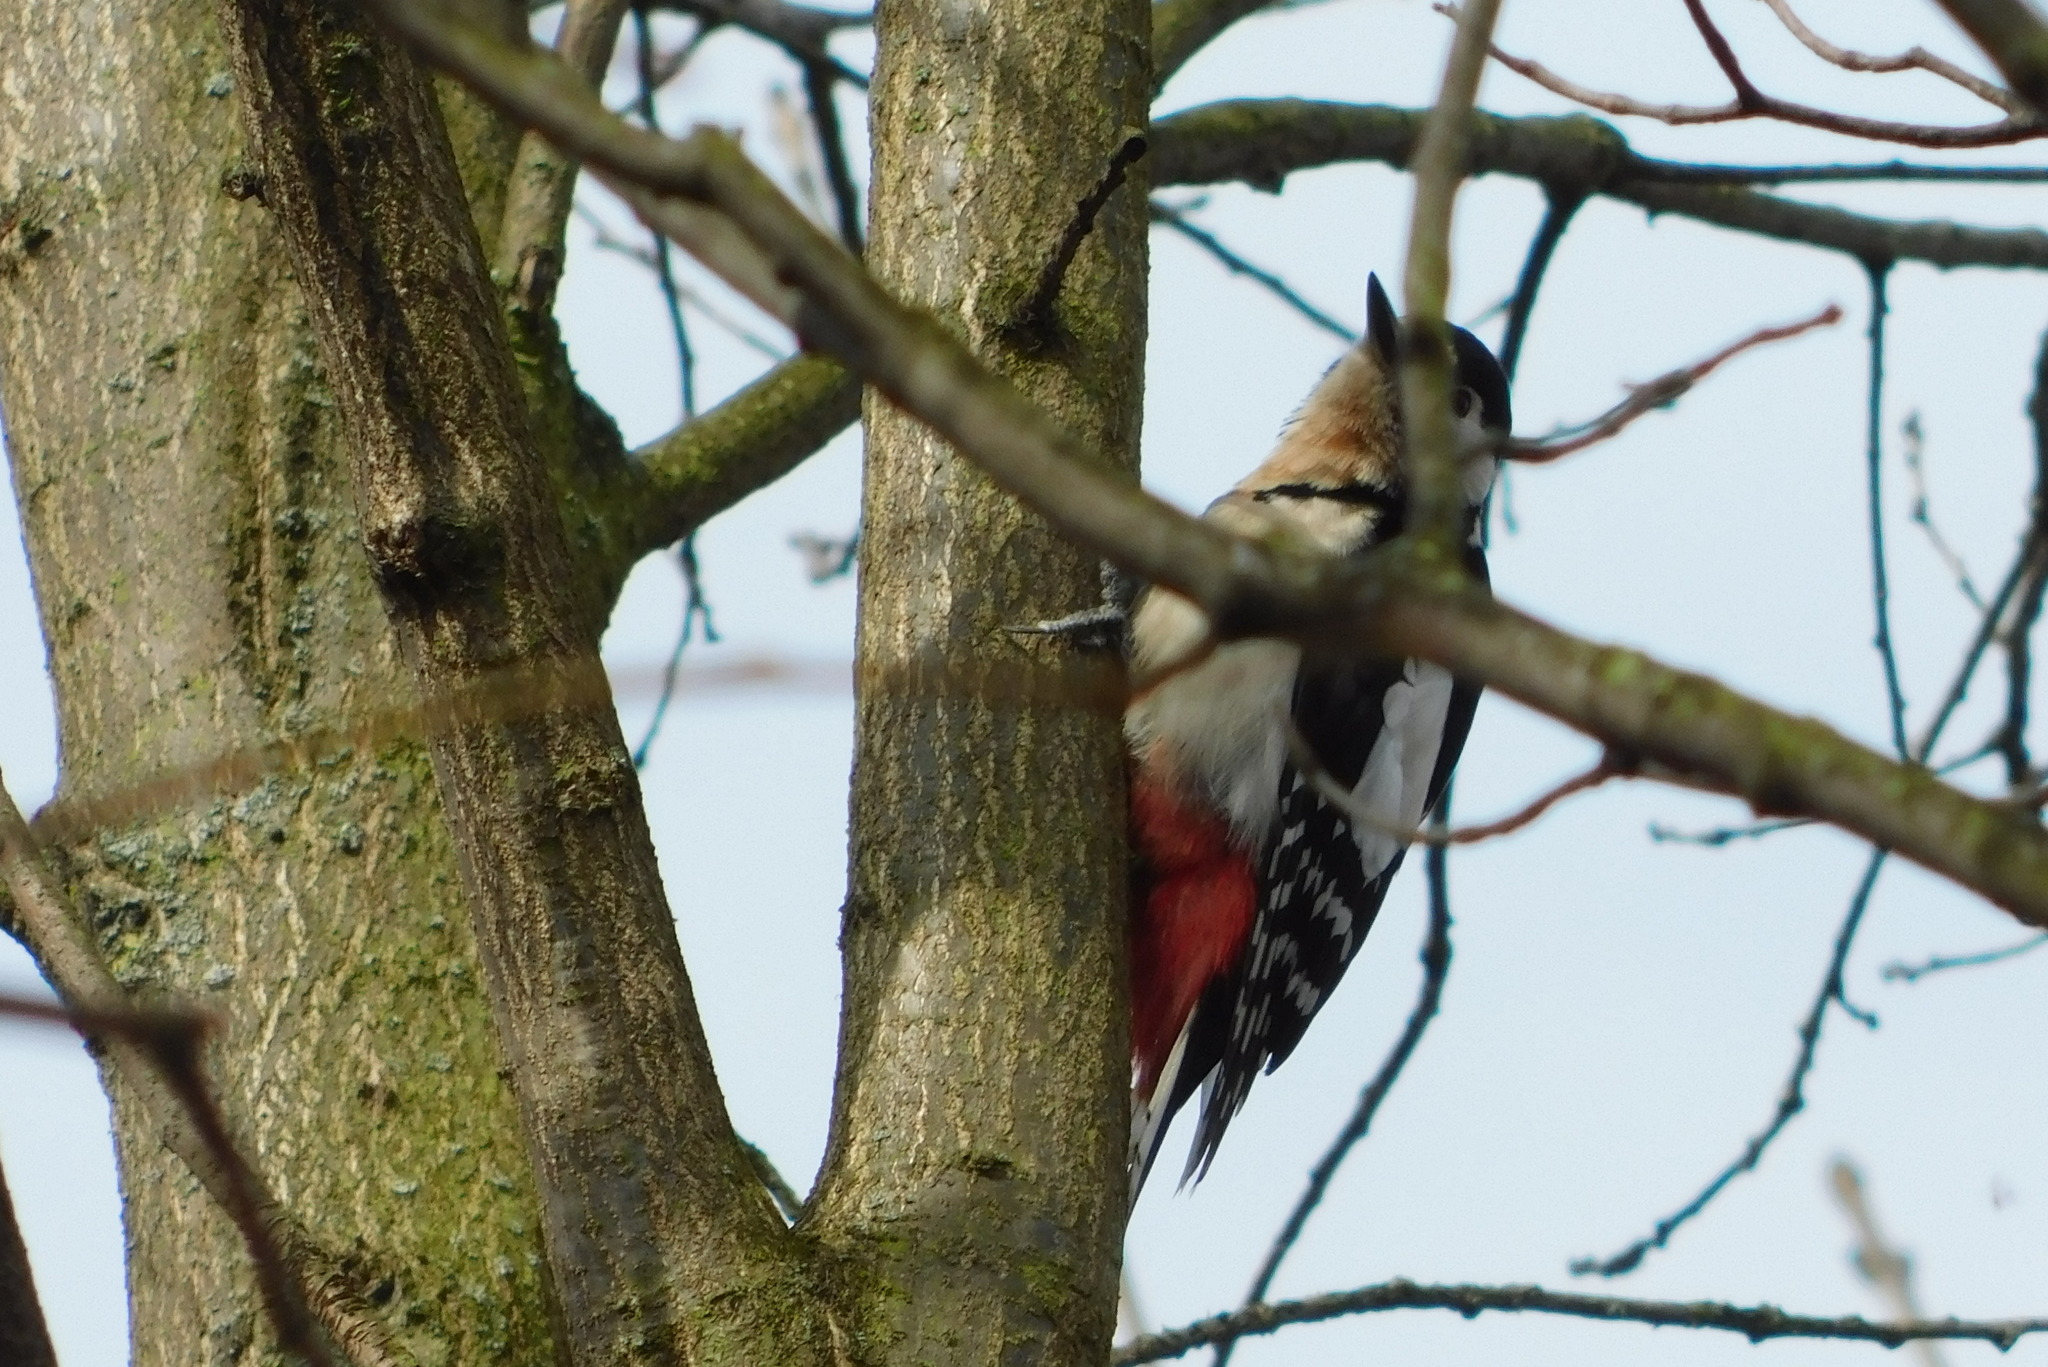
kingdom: Animalia
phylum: Chordata
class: Aves
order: Piciformes
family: Picidae
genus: Dendrocopos
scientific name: Dendrocopos major
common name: Great spotted woodpecker
